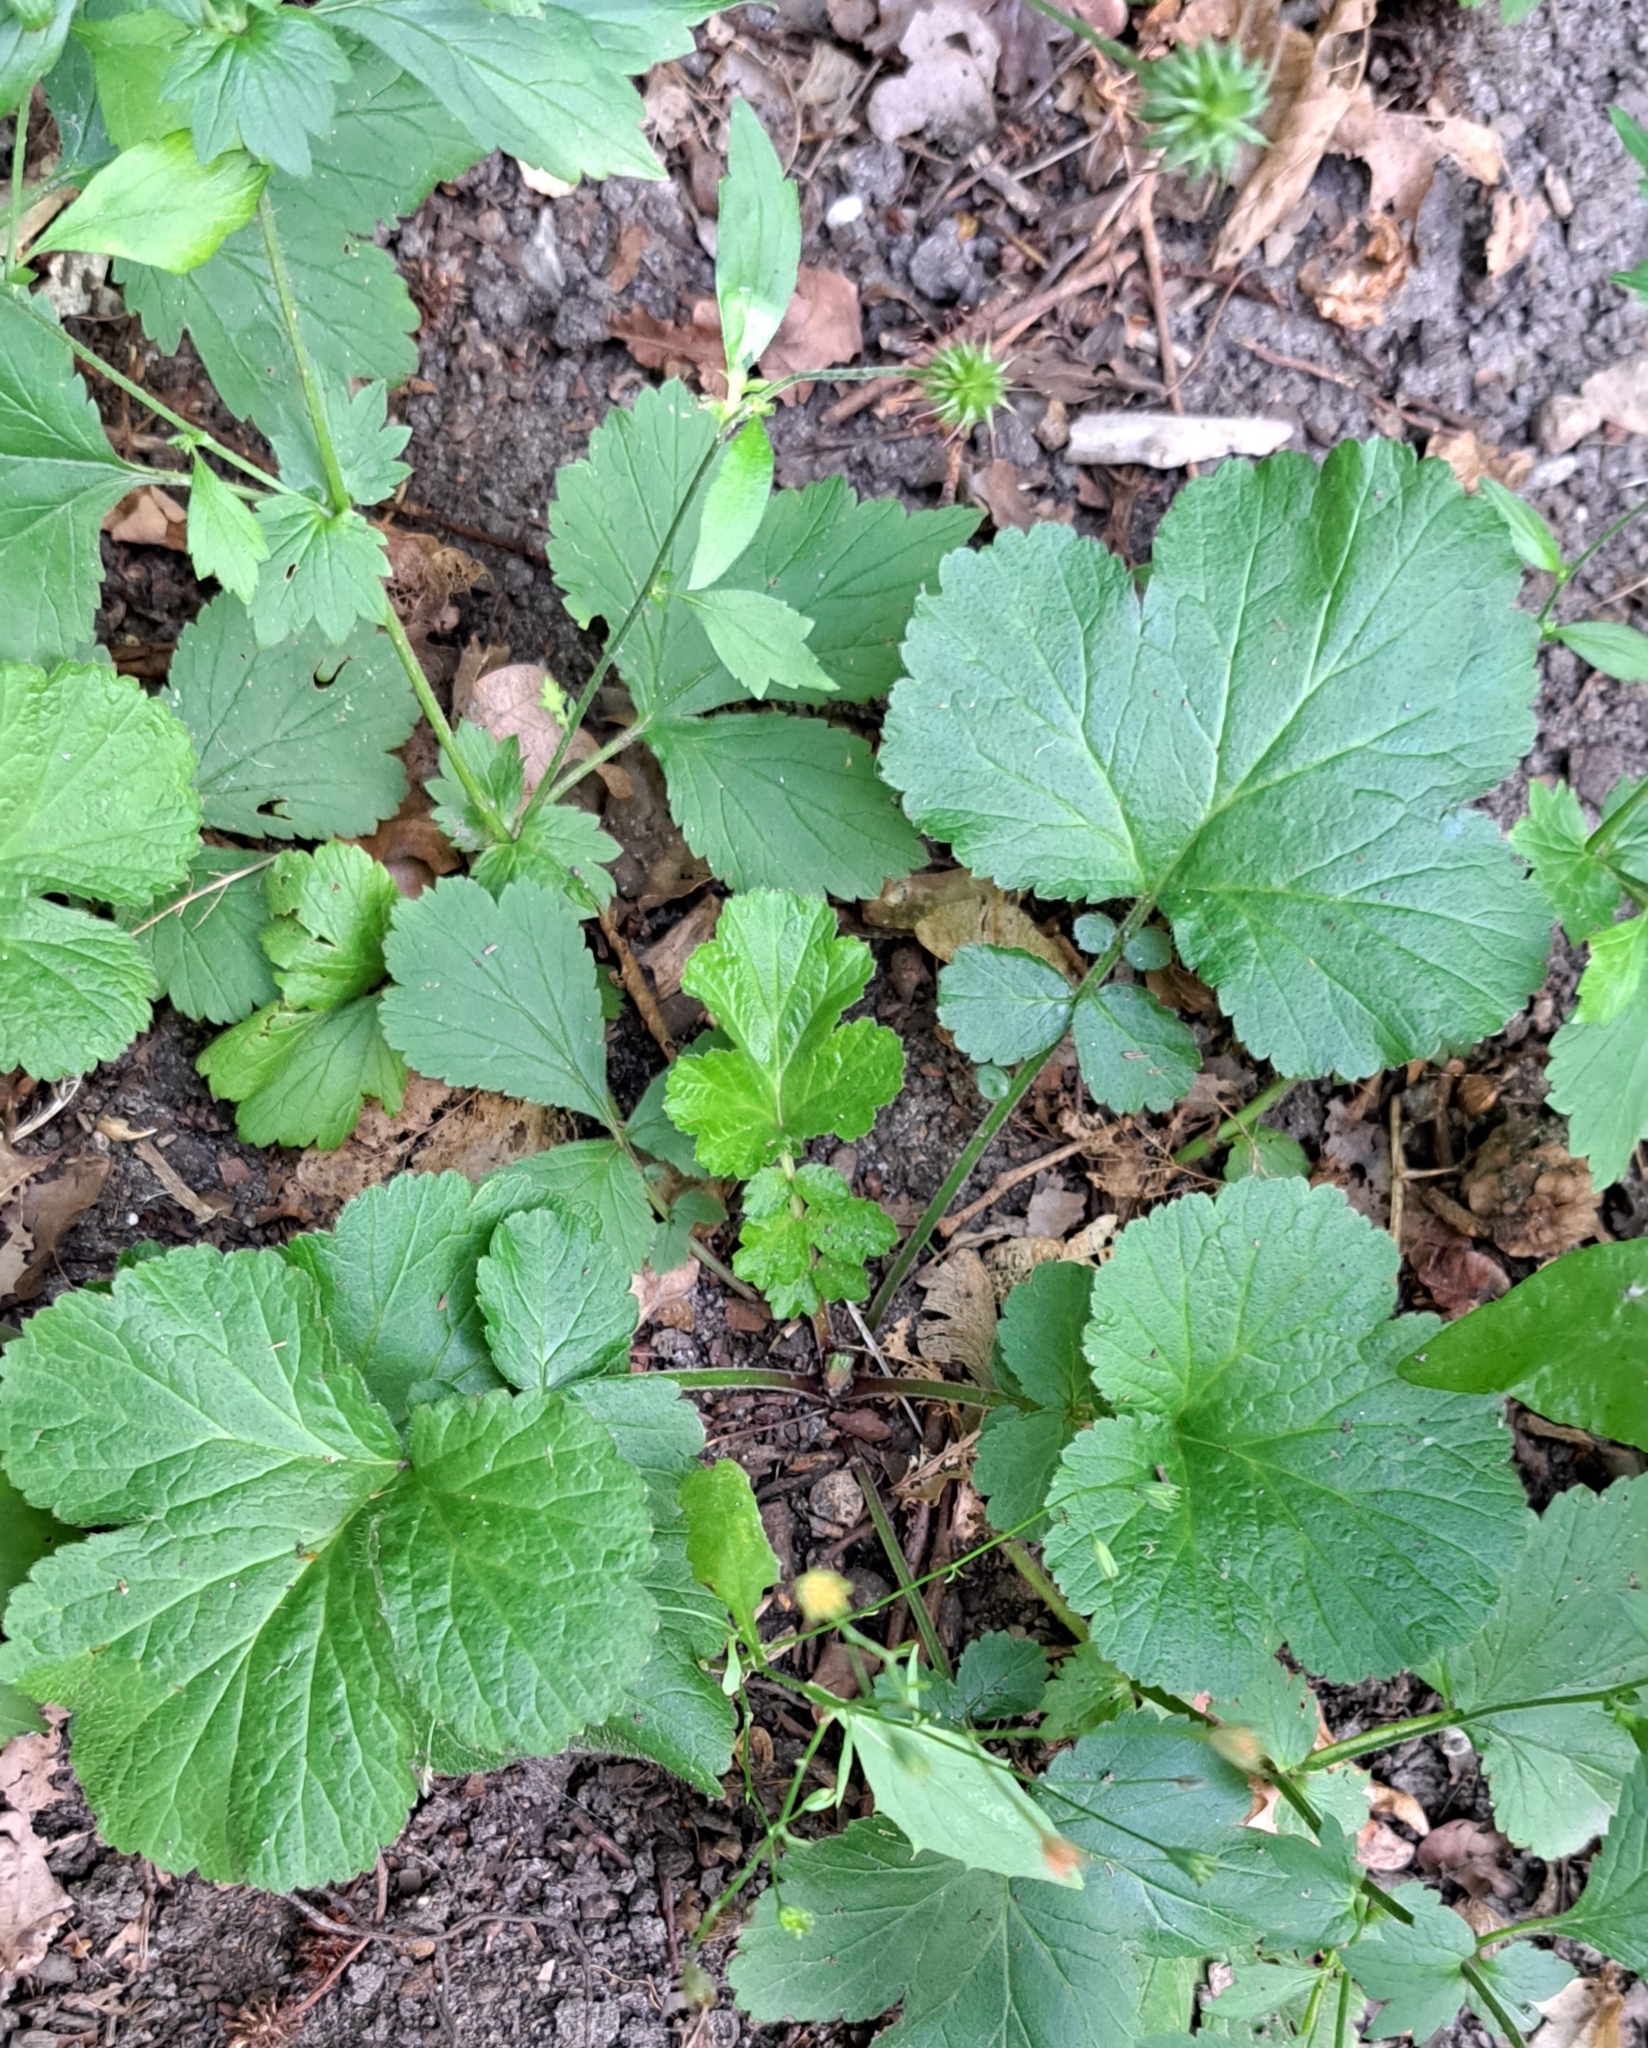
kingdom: Plantae
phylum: Tracheophyta
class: Magnoliopsida
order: Rosales
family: Rosaceae
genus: Geum
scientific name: Geum urbanum
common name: Wood avens
